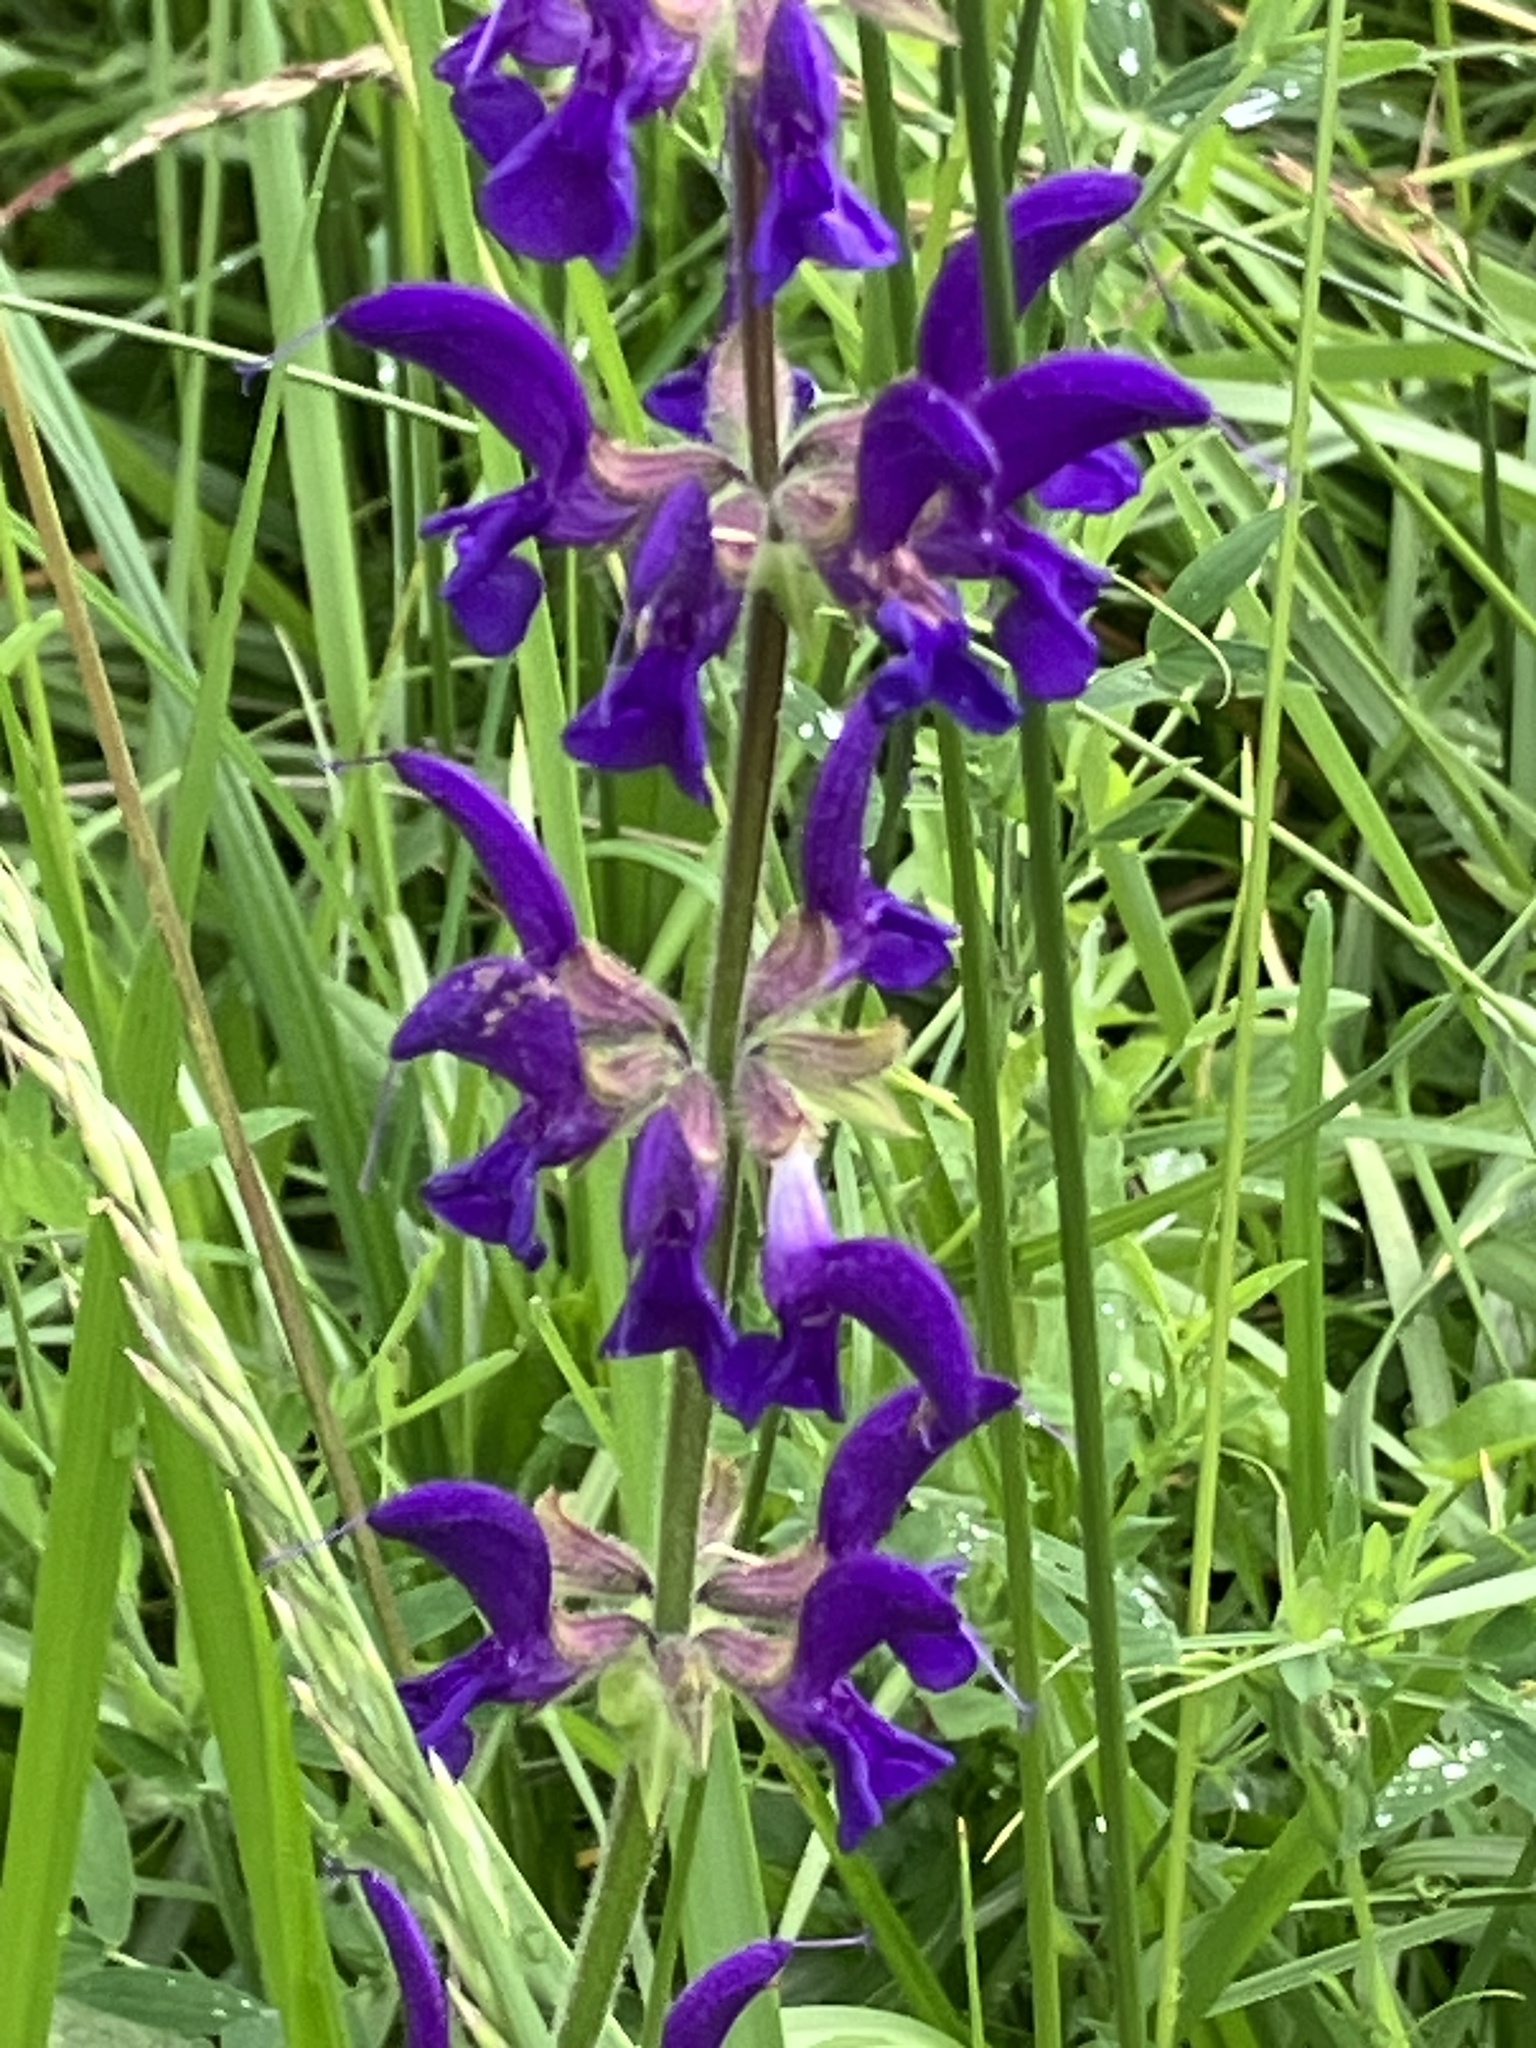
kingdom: Plantae
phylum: Tracheophyta
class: Magnoliopsida
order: Lamiales
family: Lamiaceae
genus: Salvia
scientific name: Salvia pratensis
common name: Meadow sage
